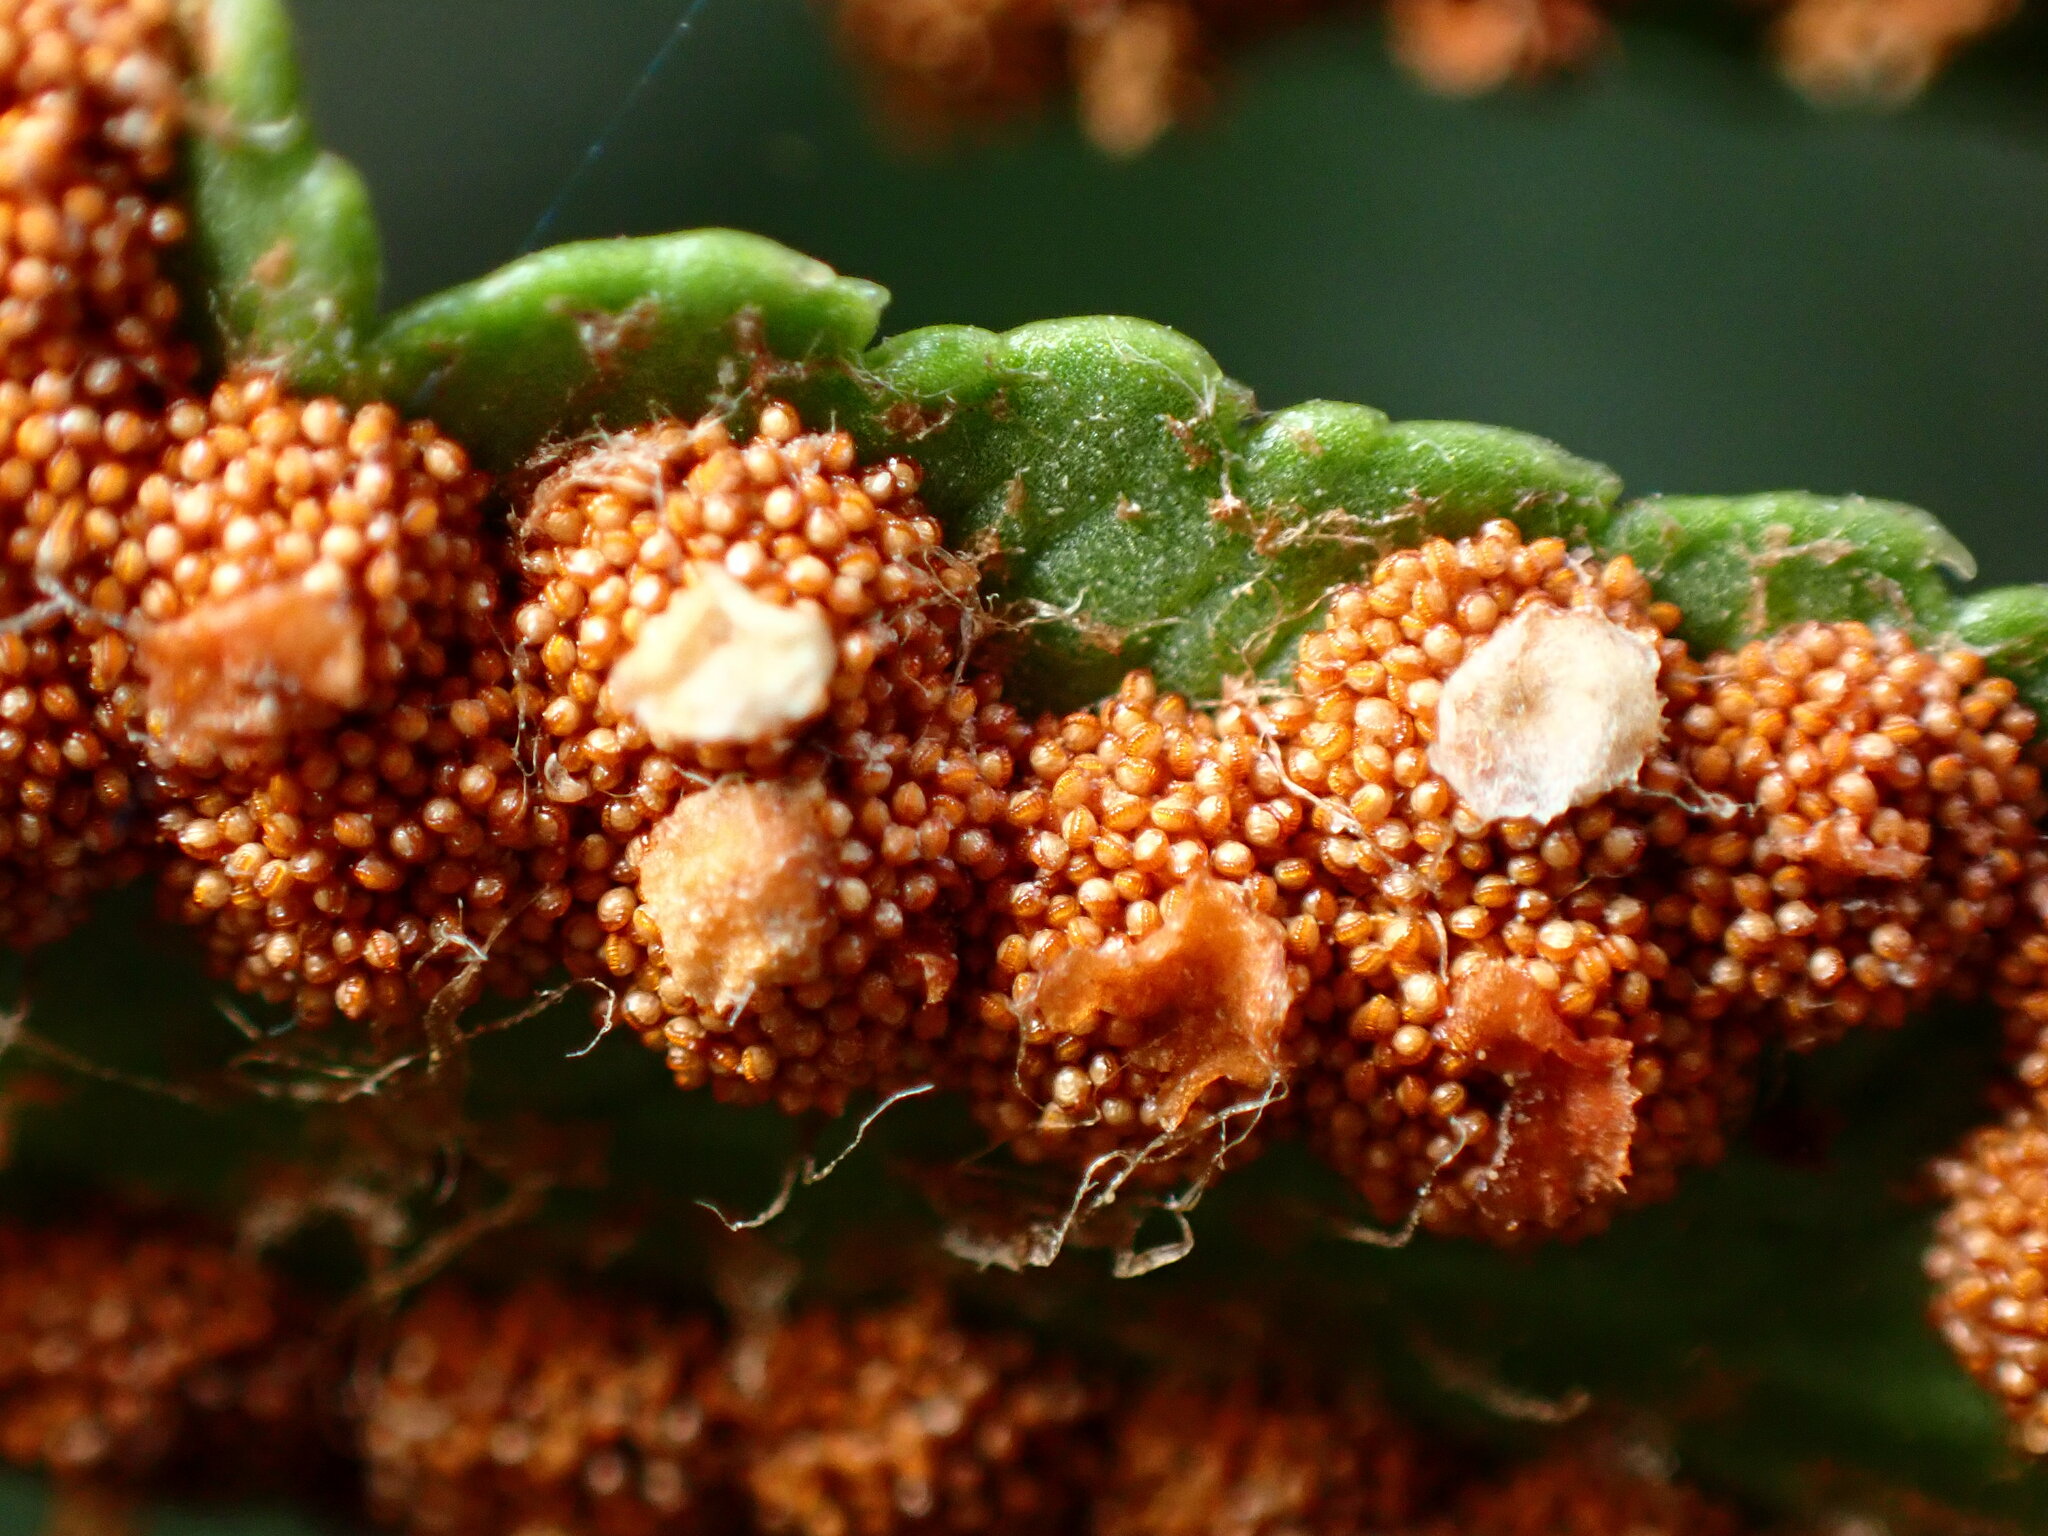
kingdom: Plantae
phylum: Tracheophyta
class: Polypodiopsida
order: Polypodiales
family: Dryopteridaceae
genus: Polystichum
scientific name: Polystichum munitum
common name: Western sword-fern
